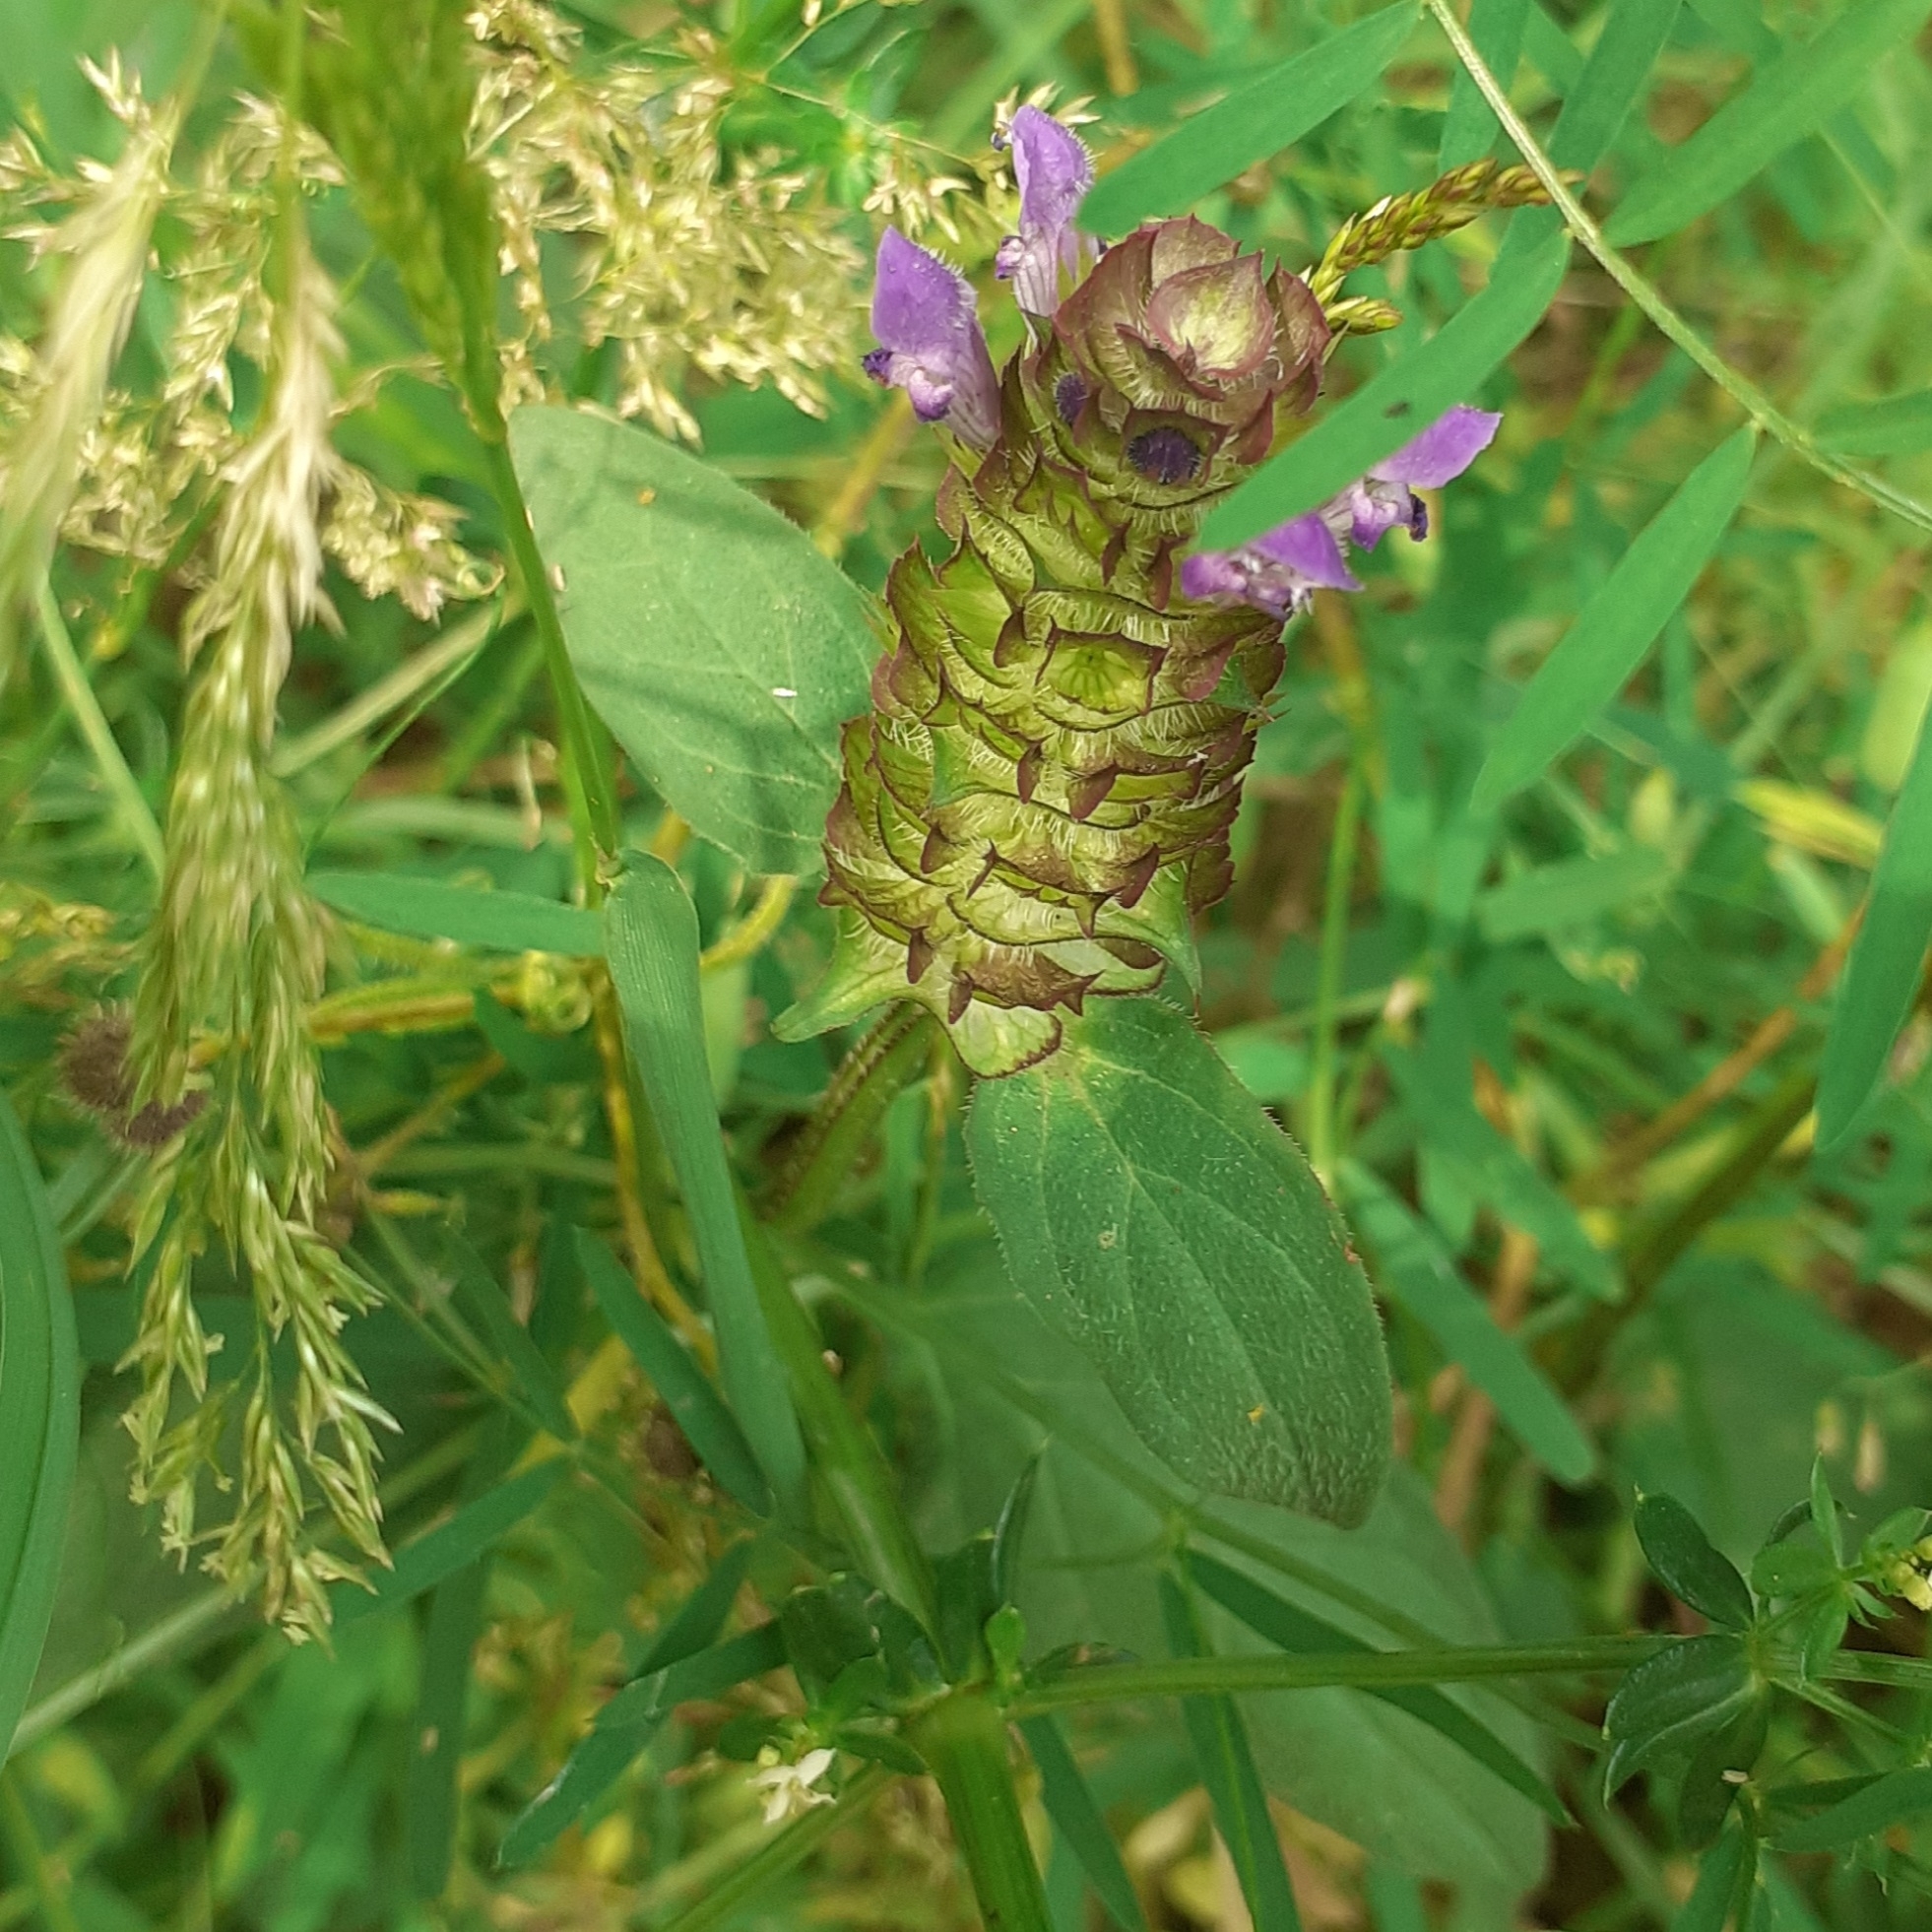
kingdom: Plantae
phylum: Tracheophyta
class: Magnoliopsida
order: Lamiales
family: Lamiaceae
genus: Prunella
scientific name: Prunella vulgaris
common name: Heal-all
